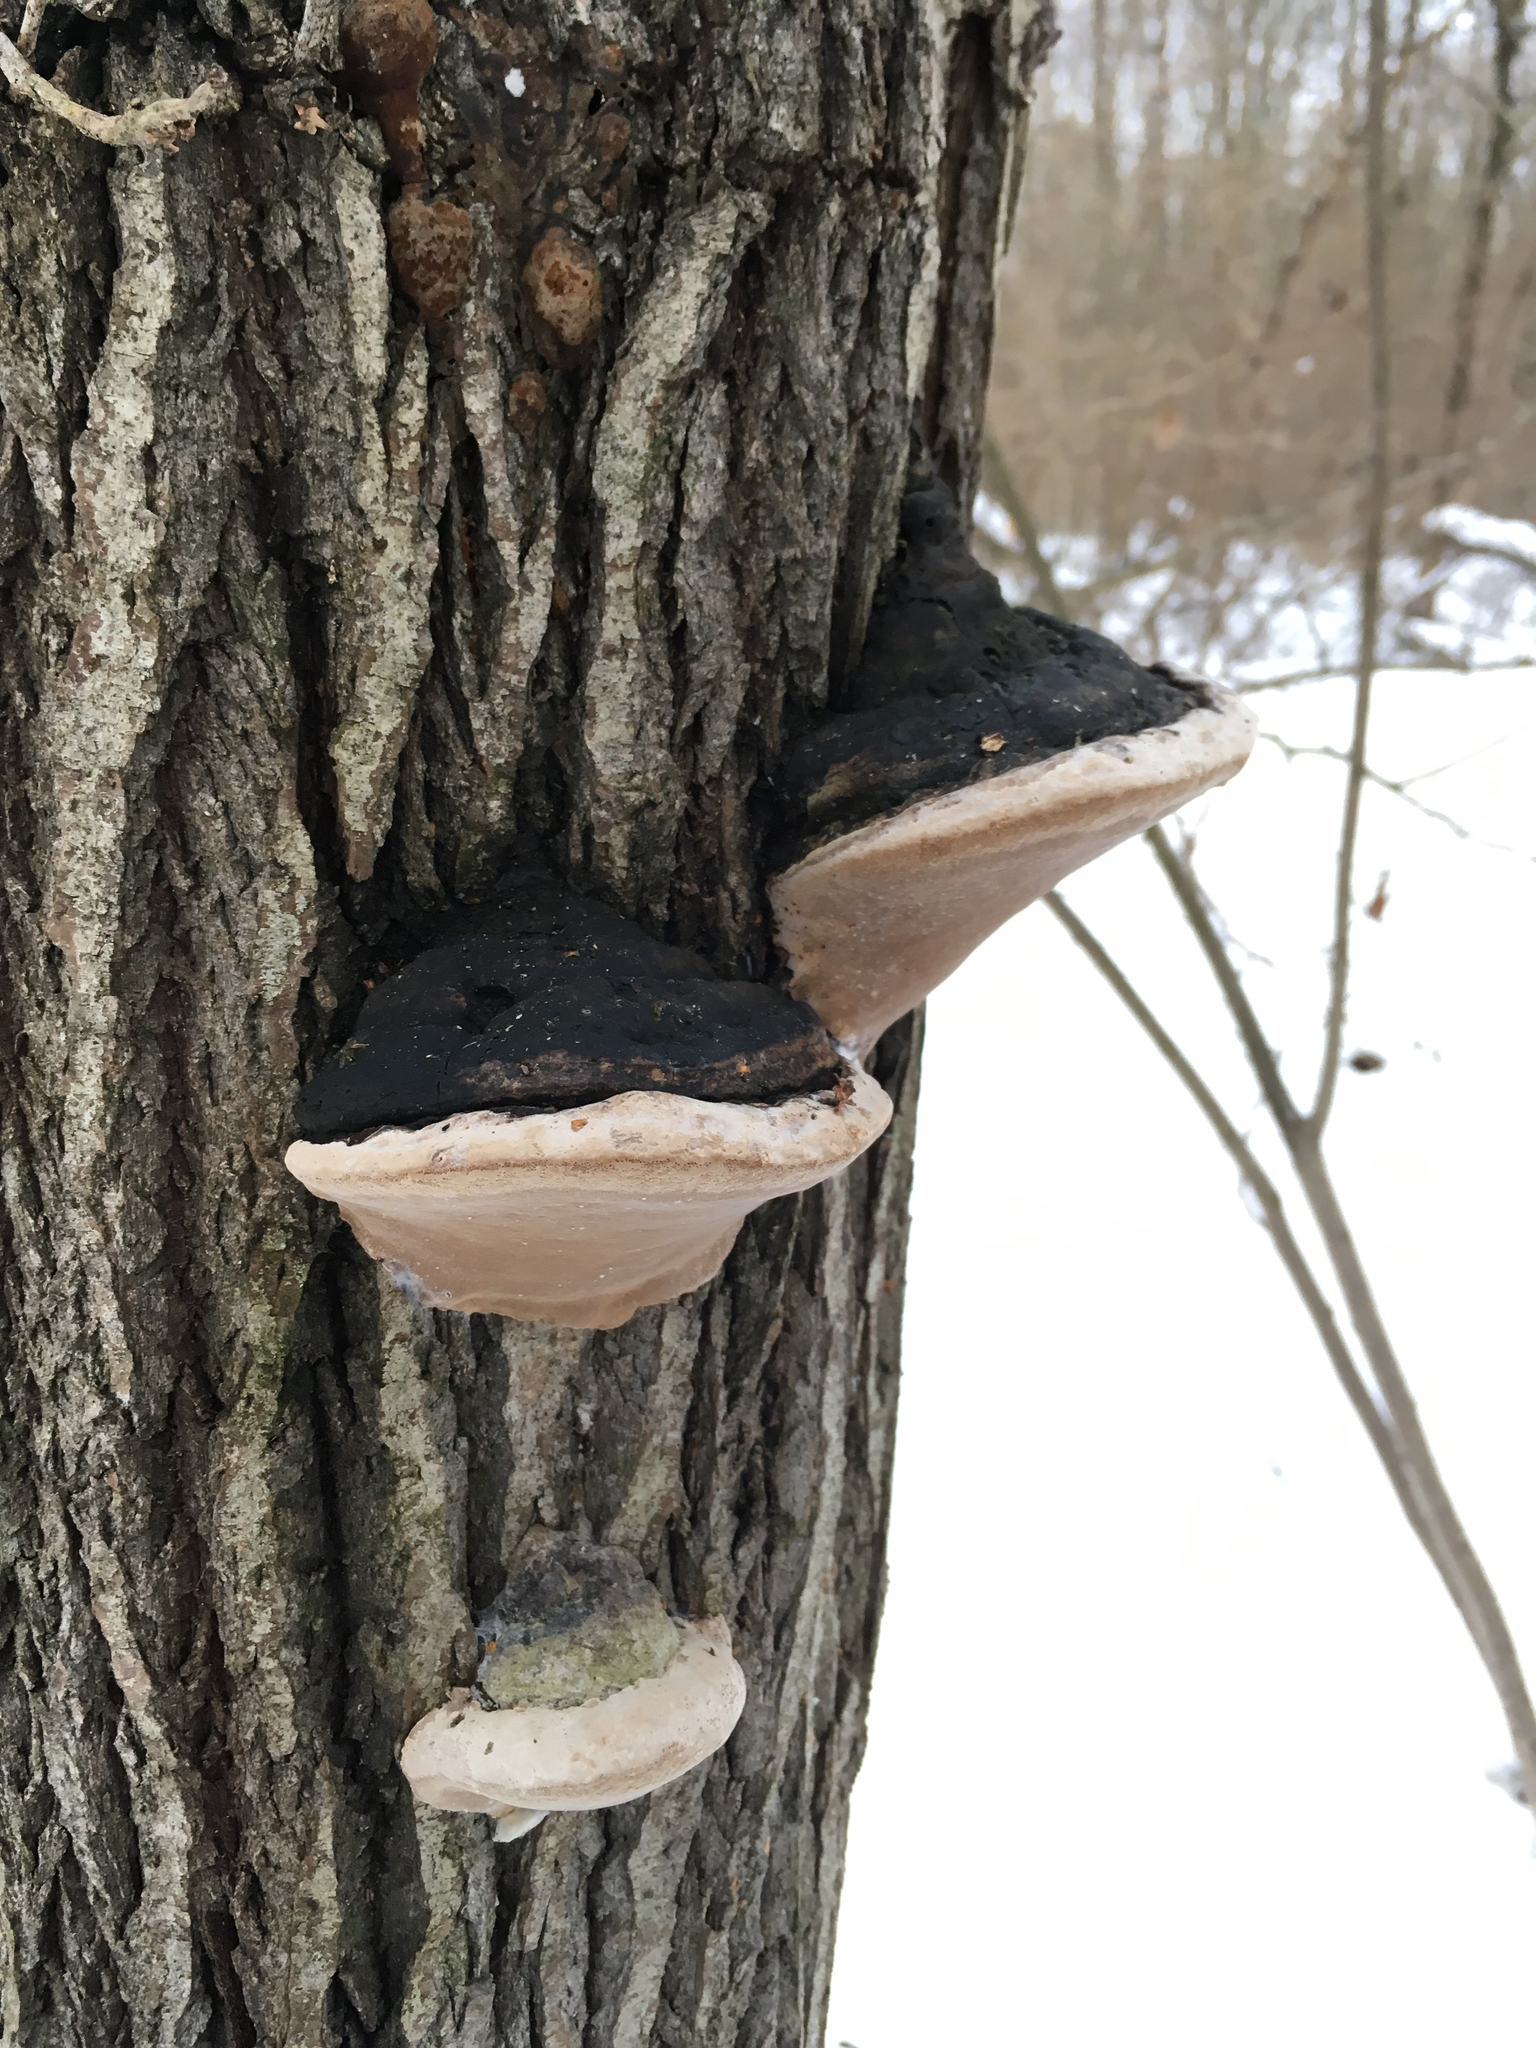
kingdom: Fungi
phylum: Basidiomycota
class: Agaricomycetes
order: Hymenochaetales
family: Hymenochaetaceae
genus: Phellinus
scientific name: Phellinus igniarius
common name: Willow bracket
